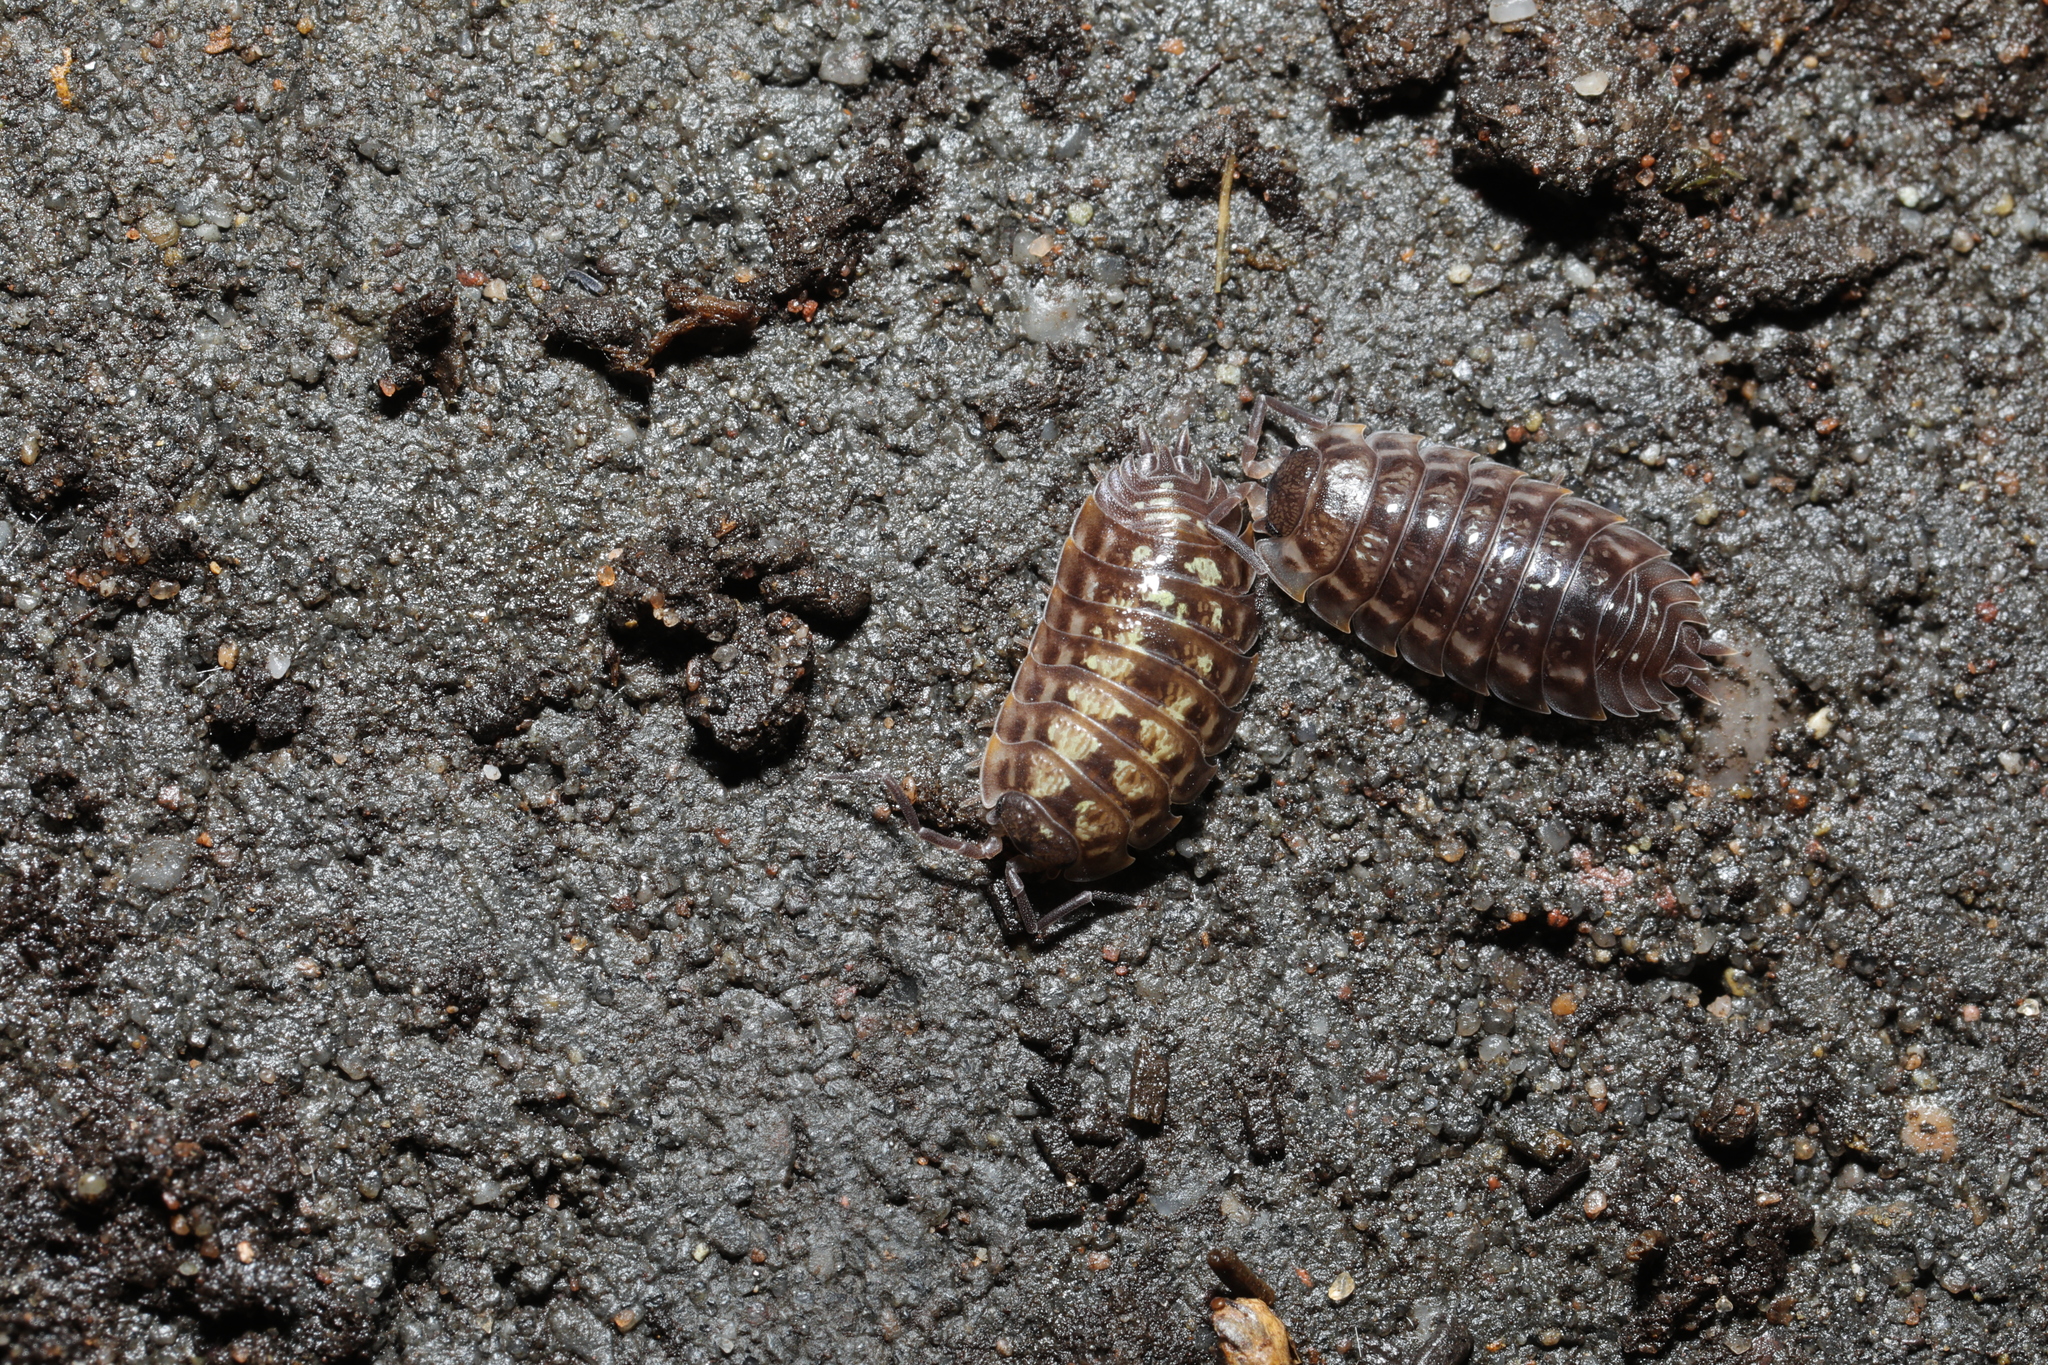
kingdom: Animalia
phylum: Arthropoda
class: Malacostraca
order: Isopoda
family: Oniscidae
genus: Oniscus
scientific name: Oniscus asellus
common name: Common shiny woodlouse
